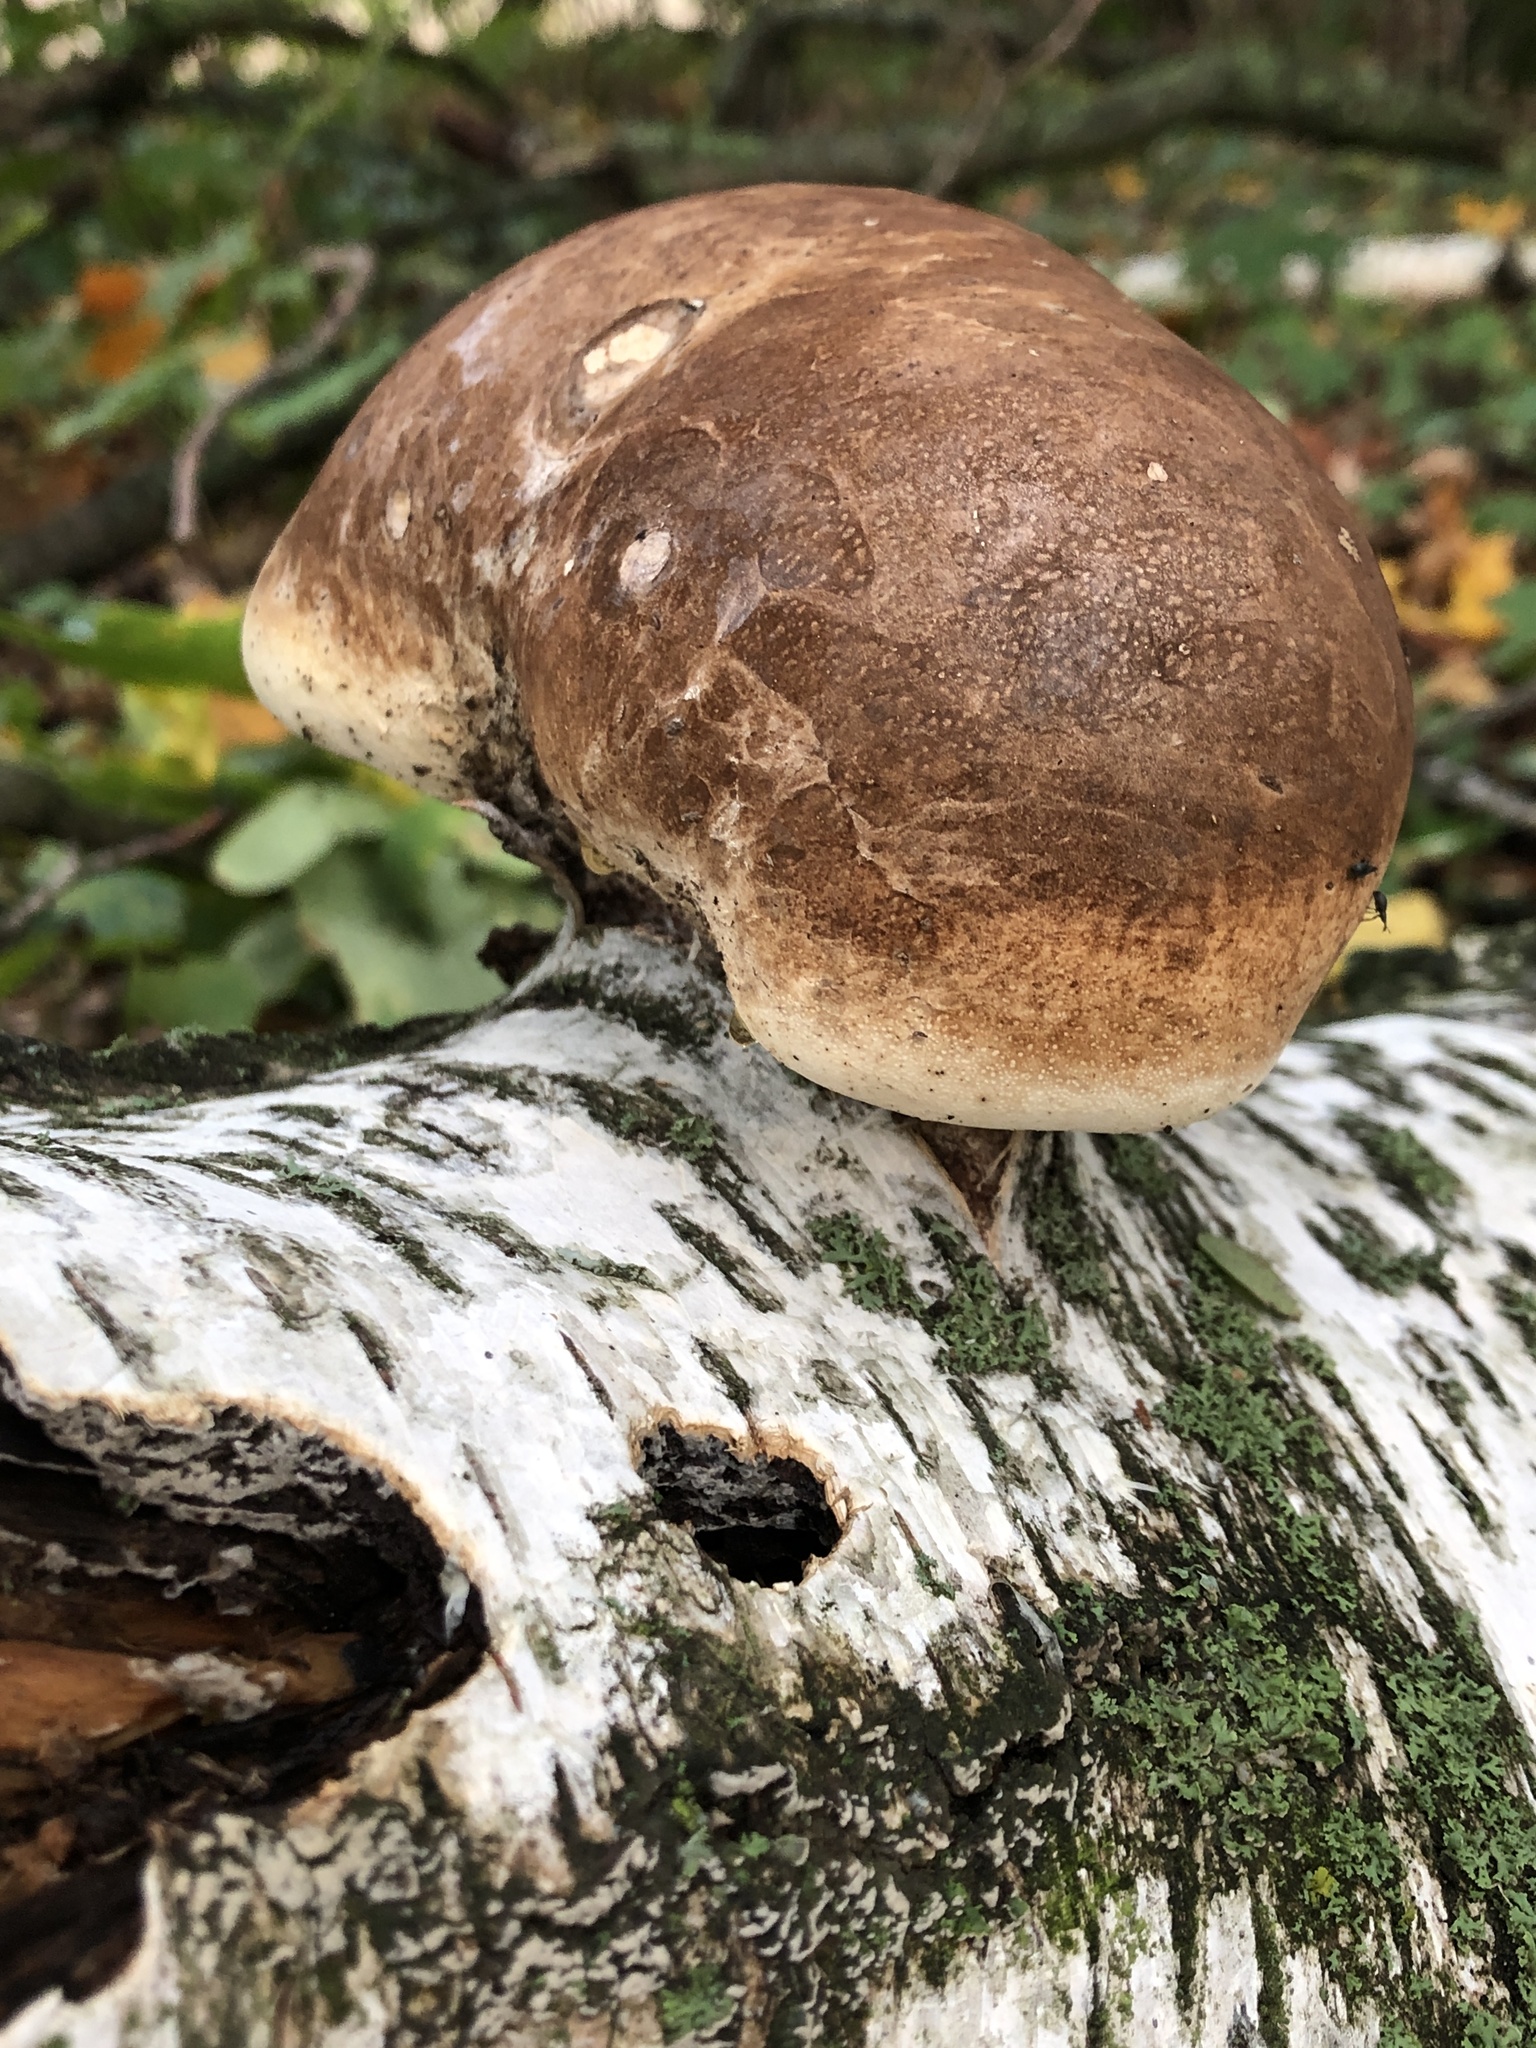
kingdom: Fungi
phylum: Basidiomycota
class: Agaricomycetes
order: Polyporales
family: Fomitopsidaceae
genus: Fomitopsis
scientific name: Fomitopsis betulina
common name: Birch polypore
